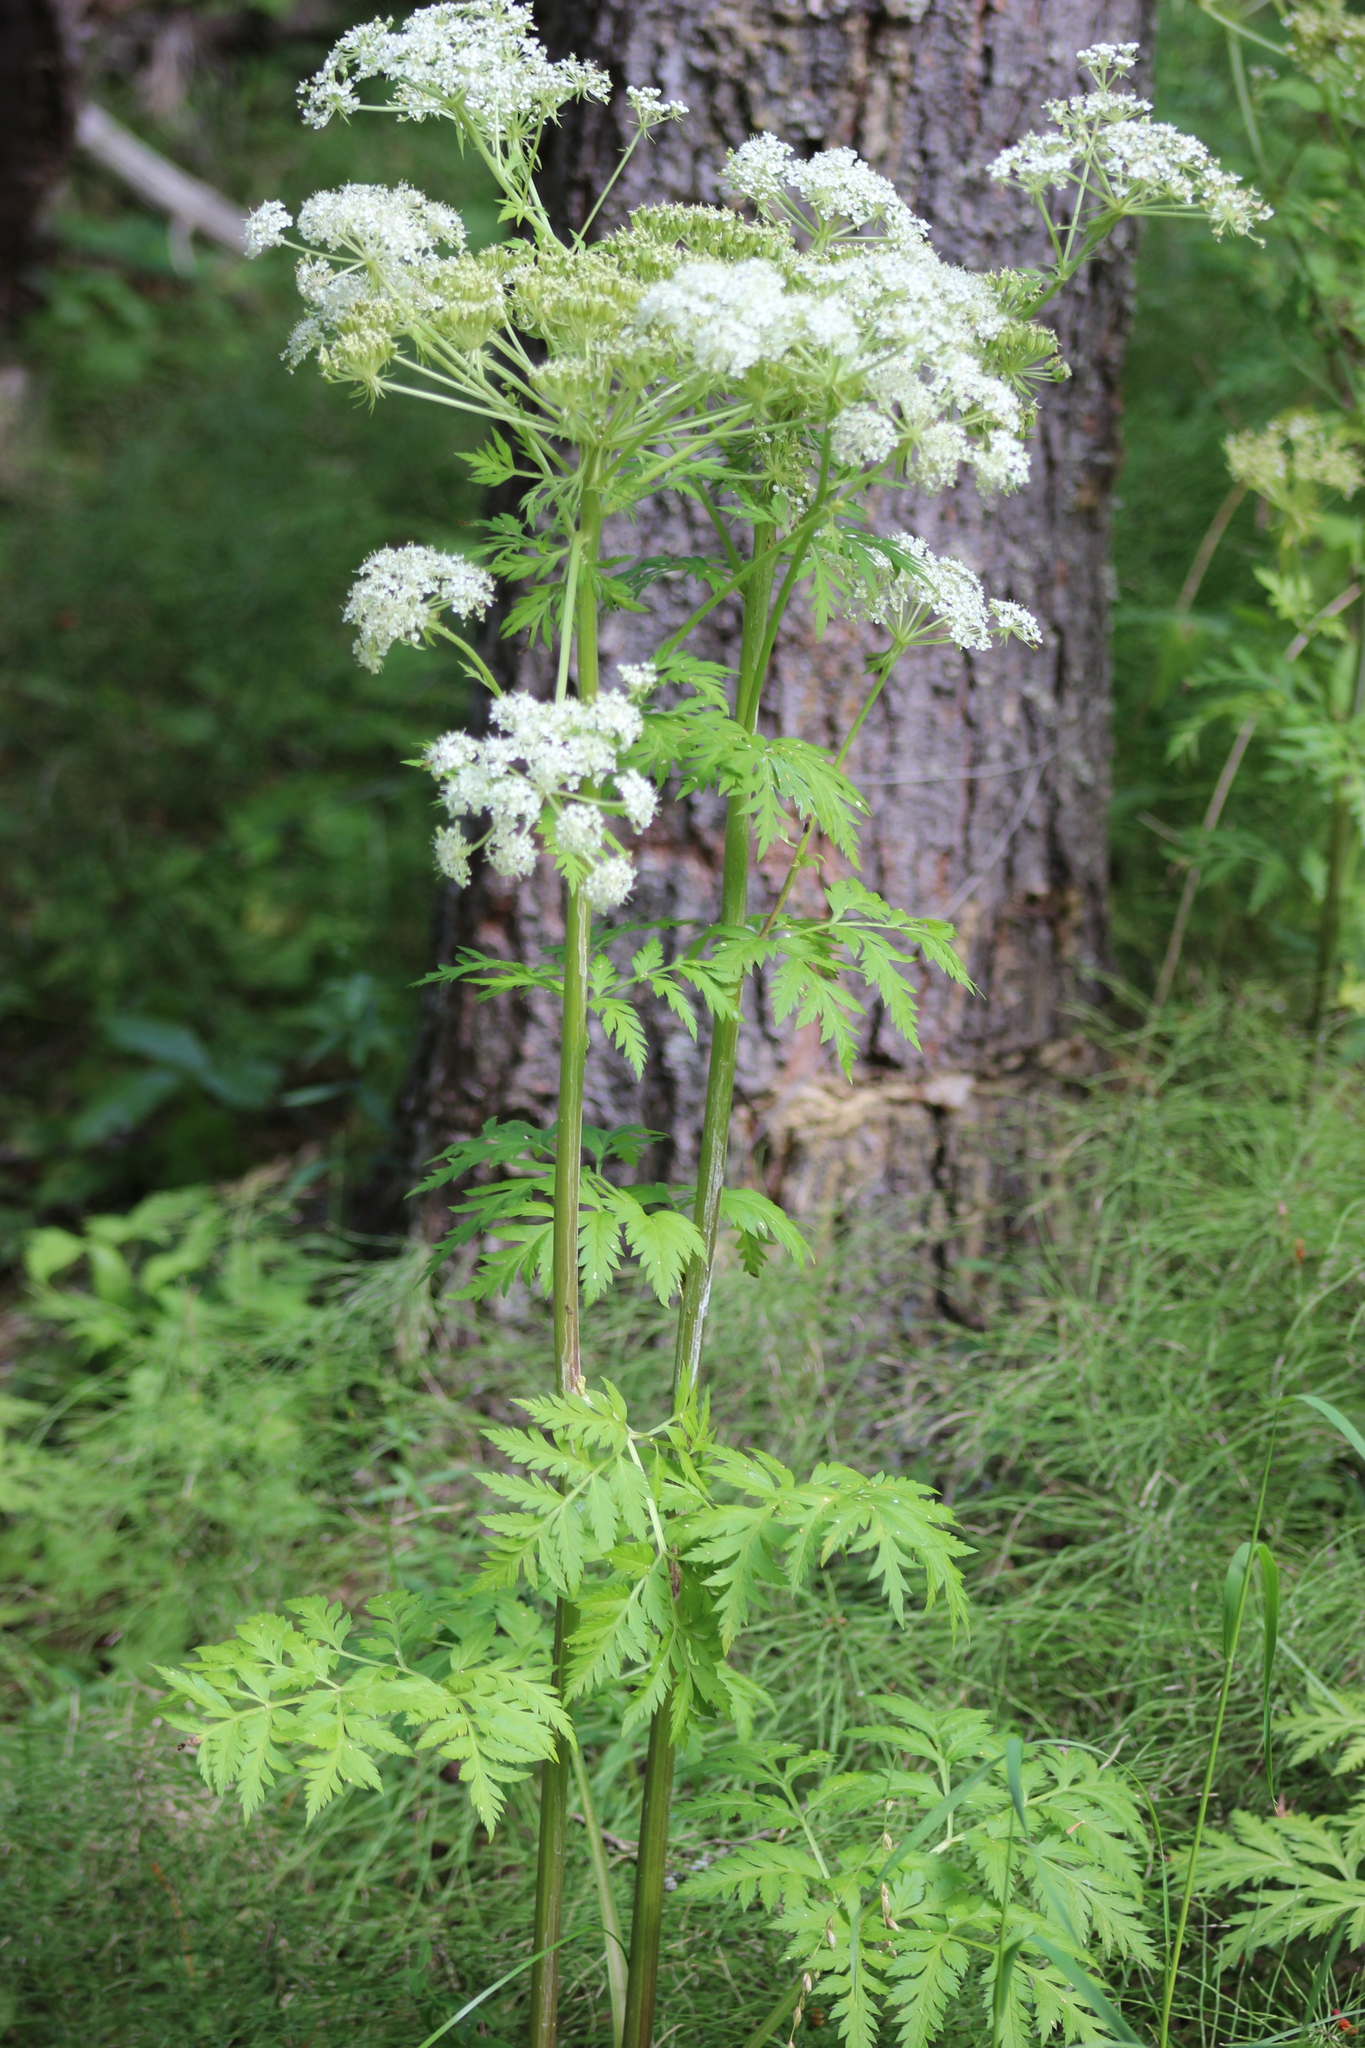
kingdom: Plantae
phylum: Tracheophyta
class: Magnoliopsida
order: Apiales
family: Apiaceae
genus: Pleurospermum
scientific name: Pleurospermum uralense
